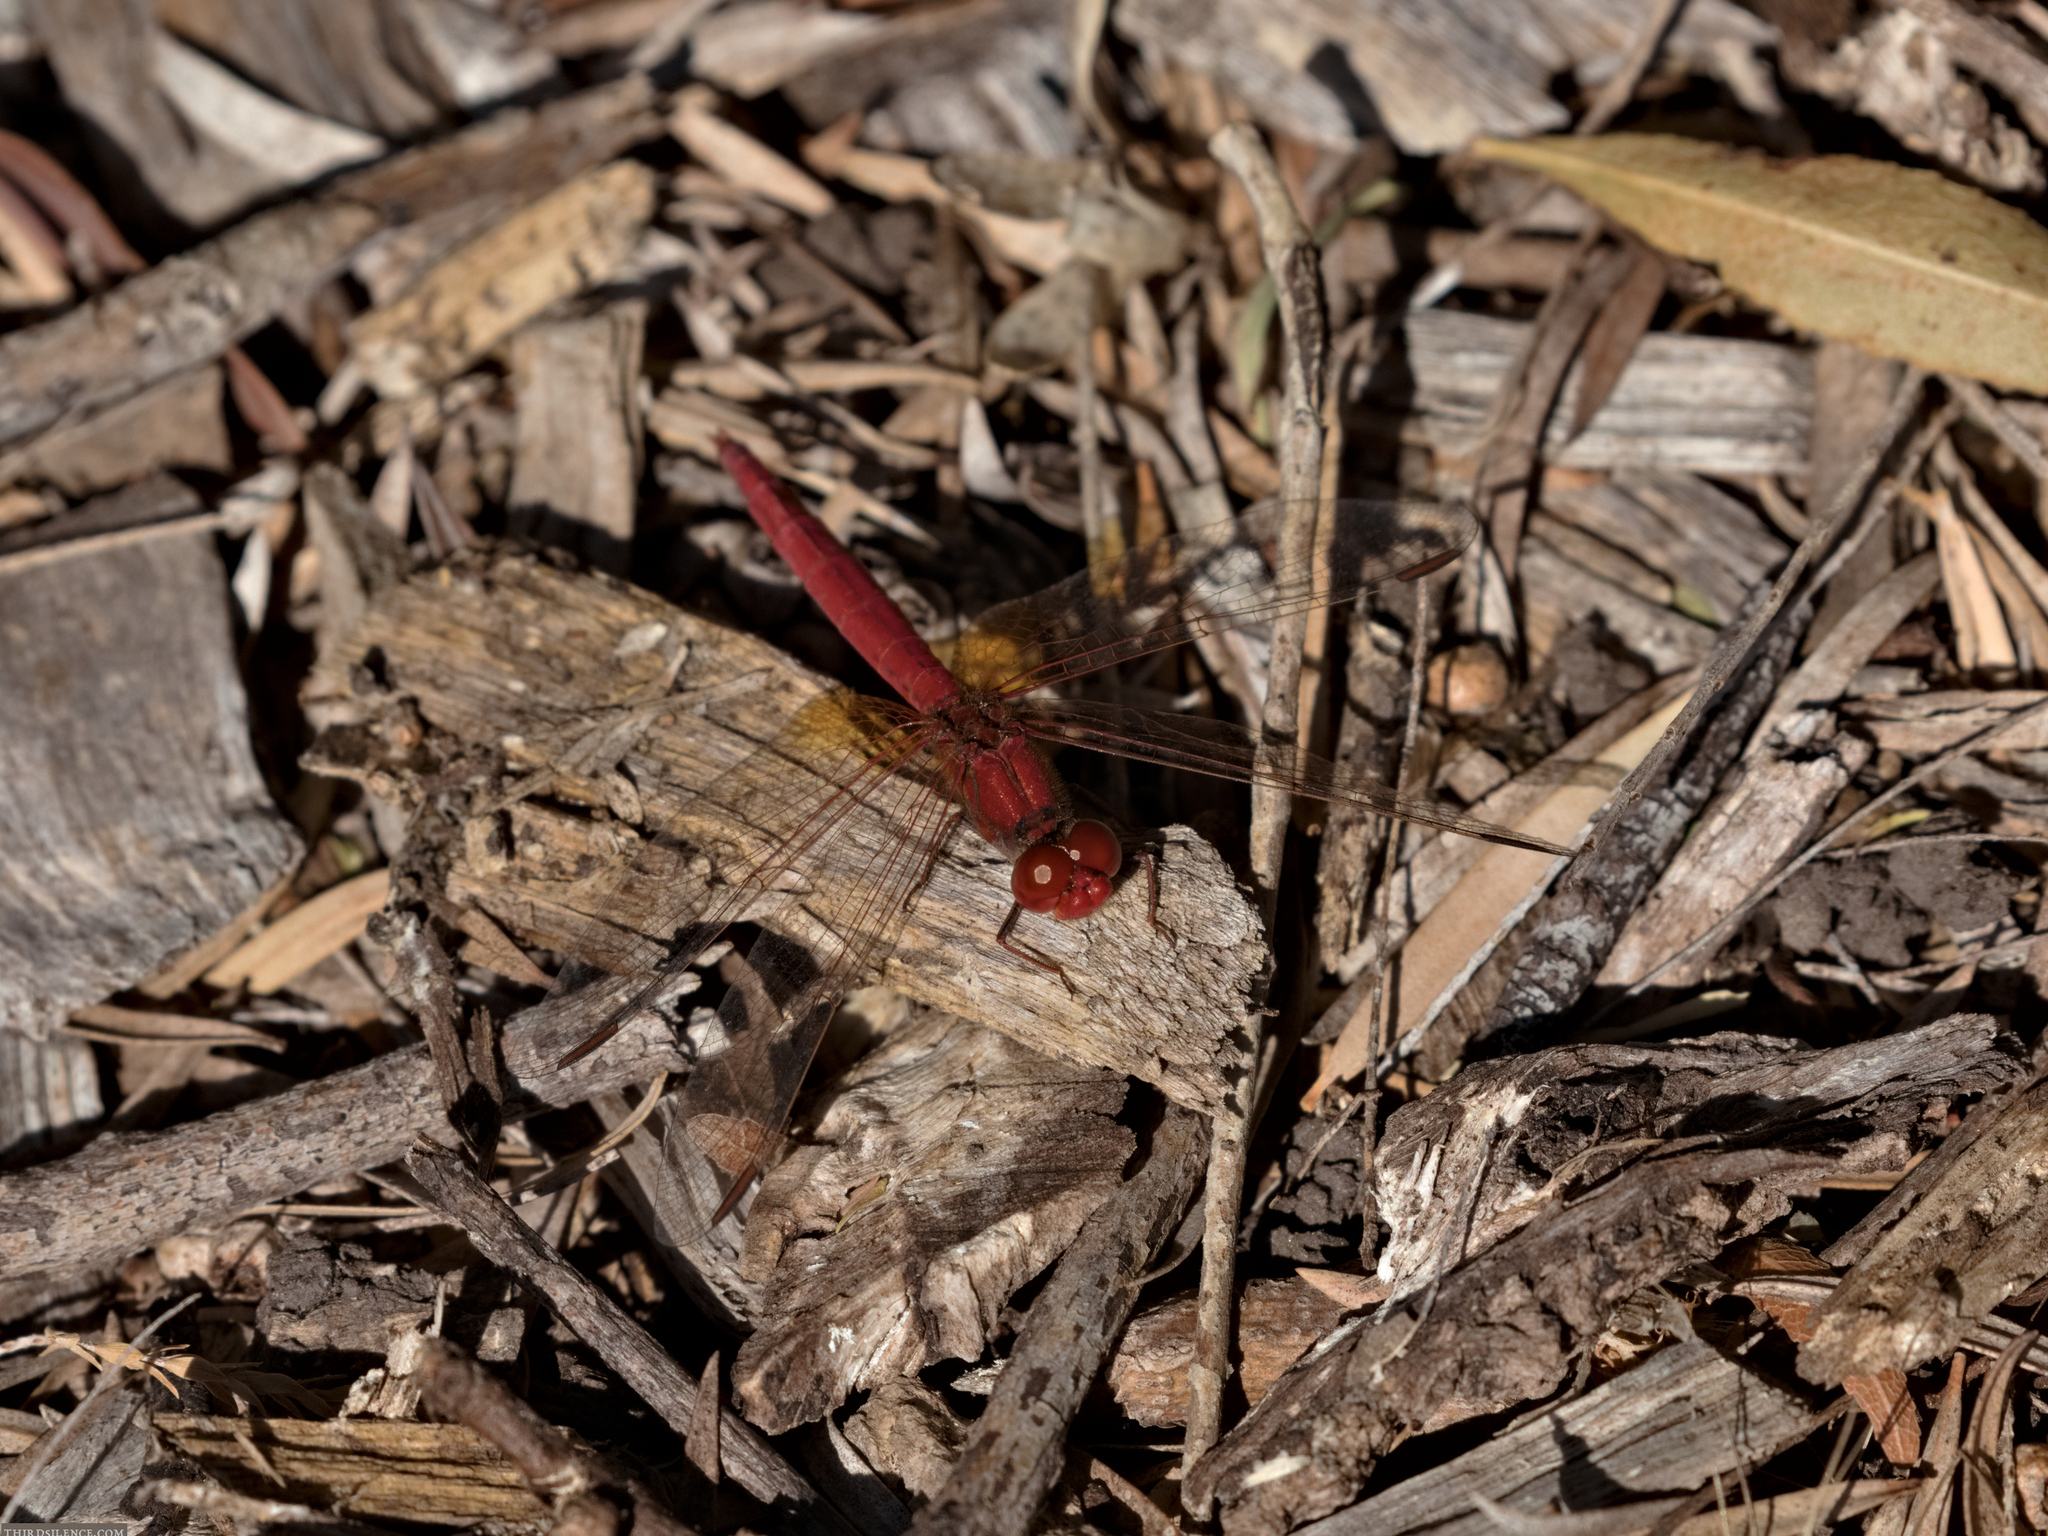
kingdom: Animalia
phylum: Arthropoda
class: Insecta
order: Odonata
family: Libellulidae
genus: Diplacodes
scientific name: Diplacodes haematodes
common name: Scarlet percher
